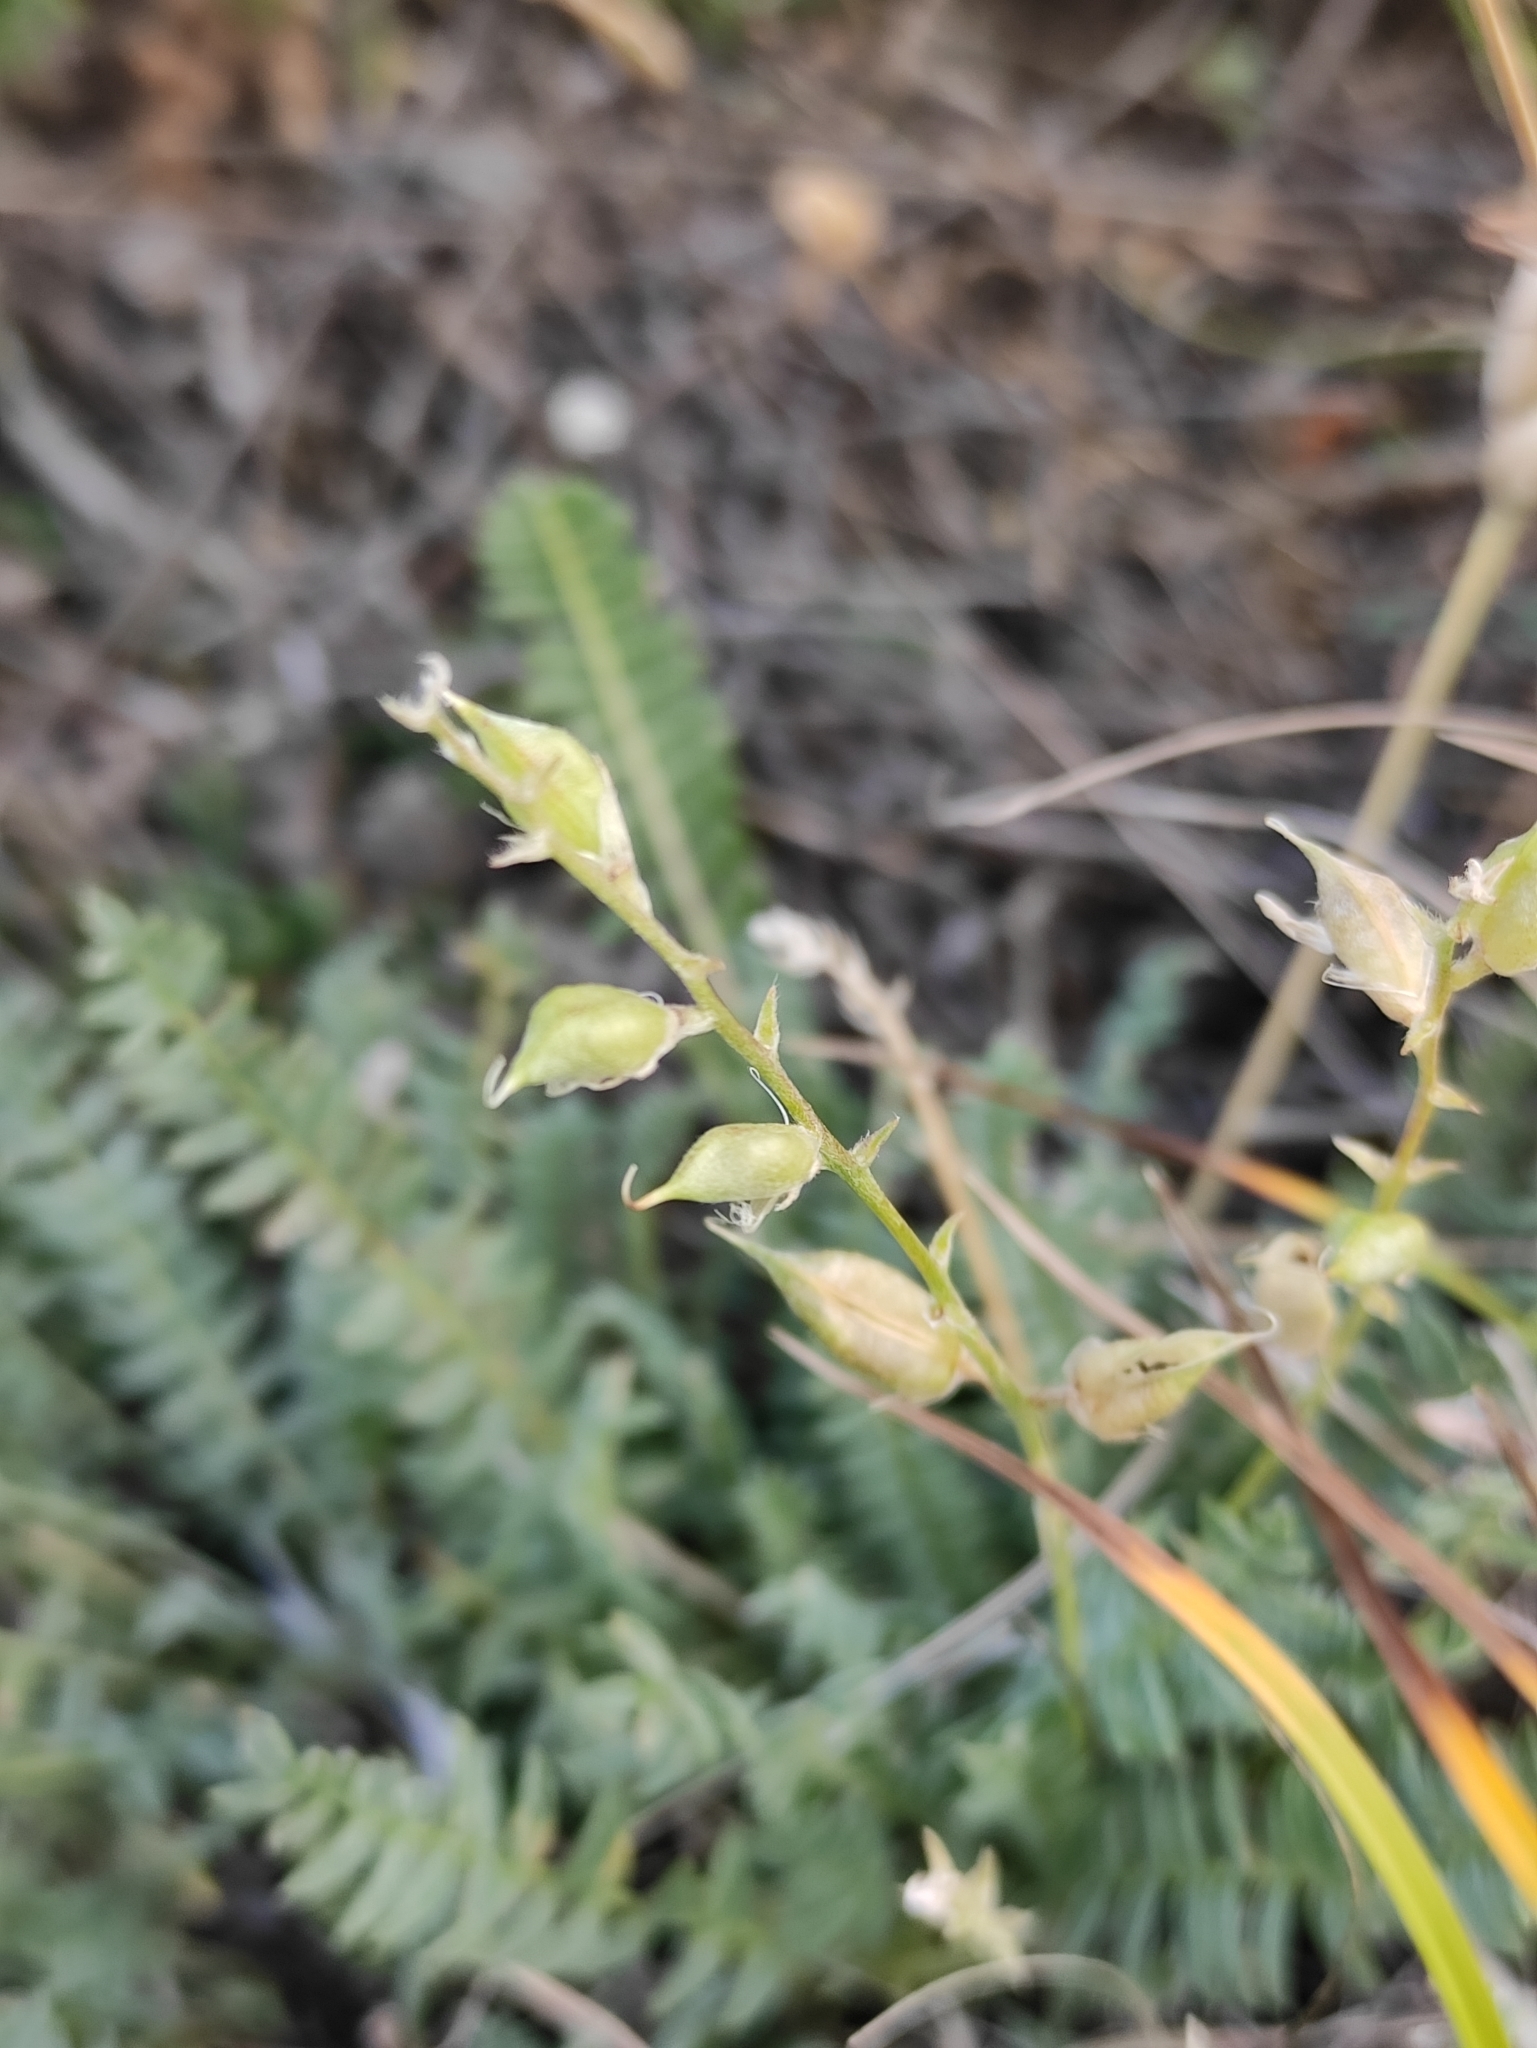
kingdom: Plantae
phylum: Tracheophyta
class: Magnoliopsida
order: Fabales
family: Fabaceae
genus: Oxytropis
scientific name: Oxytropis coerulea
